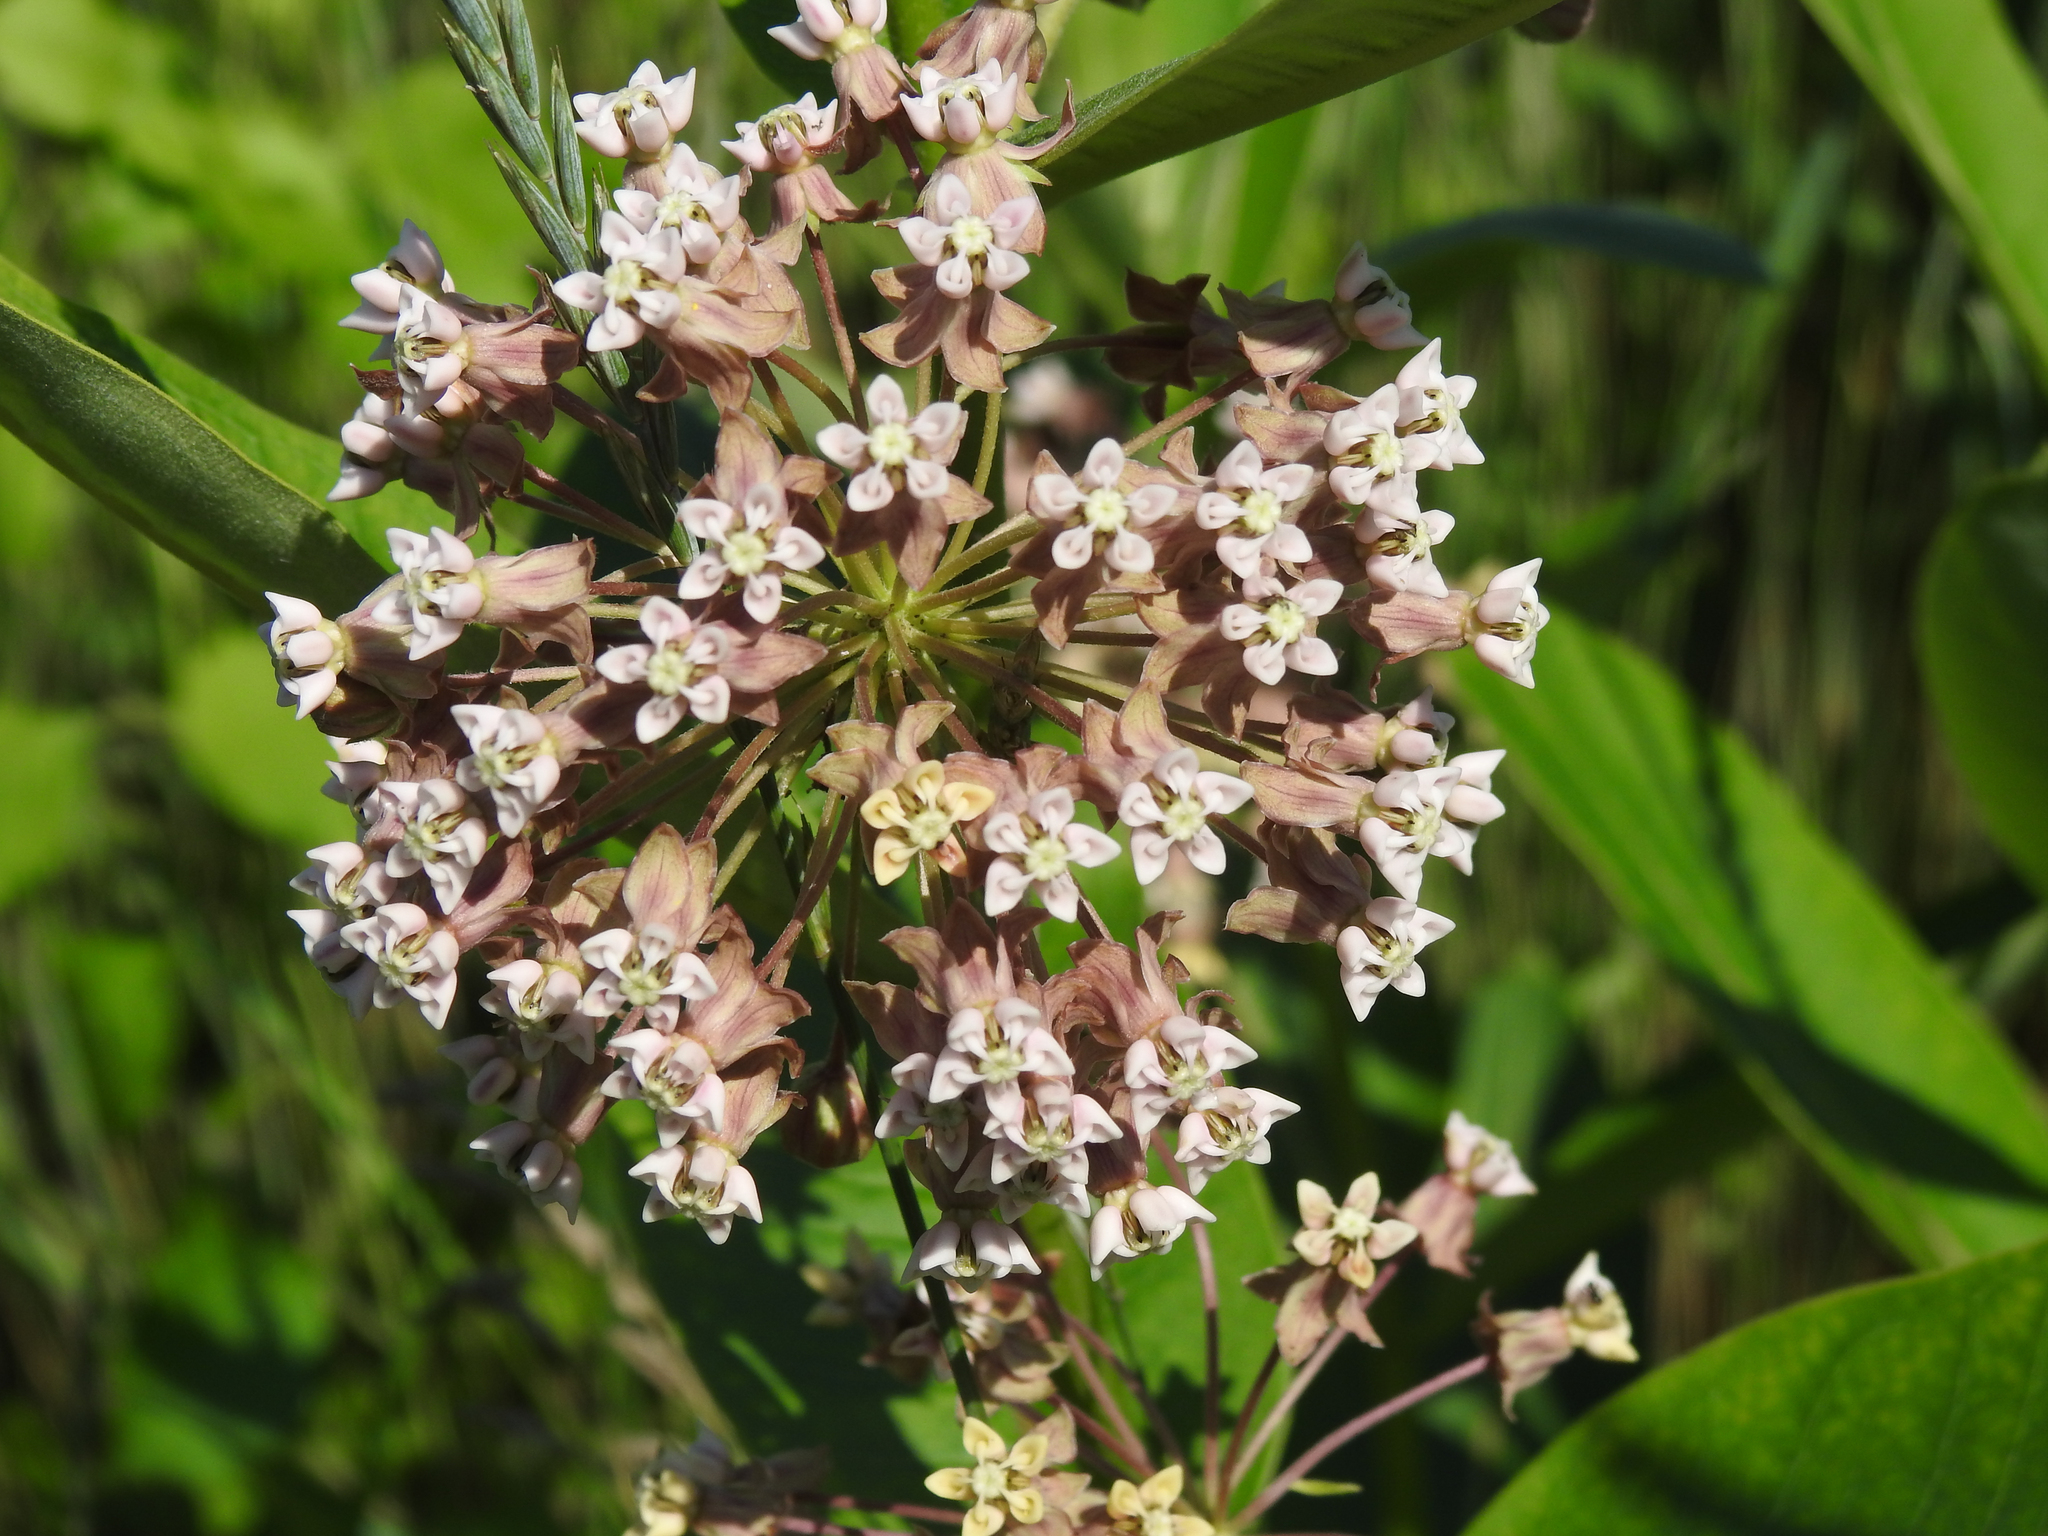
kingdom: Plantae
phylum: Tracheophyta
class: Magnoliopsida
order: Gentianales
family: Apocynaceae
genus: Asclepias
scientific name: Asclepias syriaca
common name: Common milkweed
